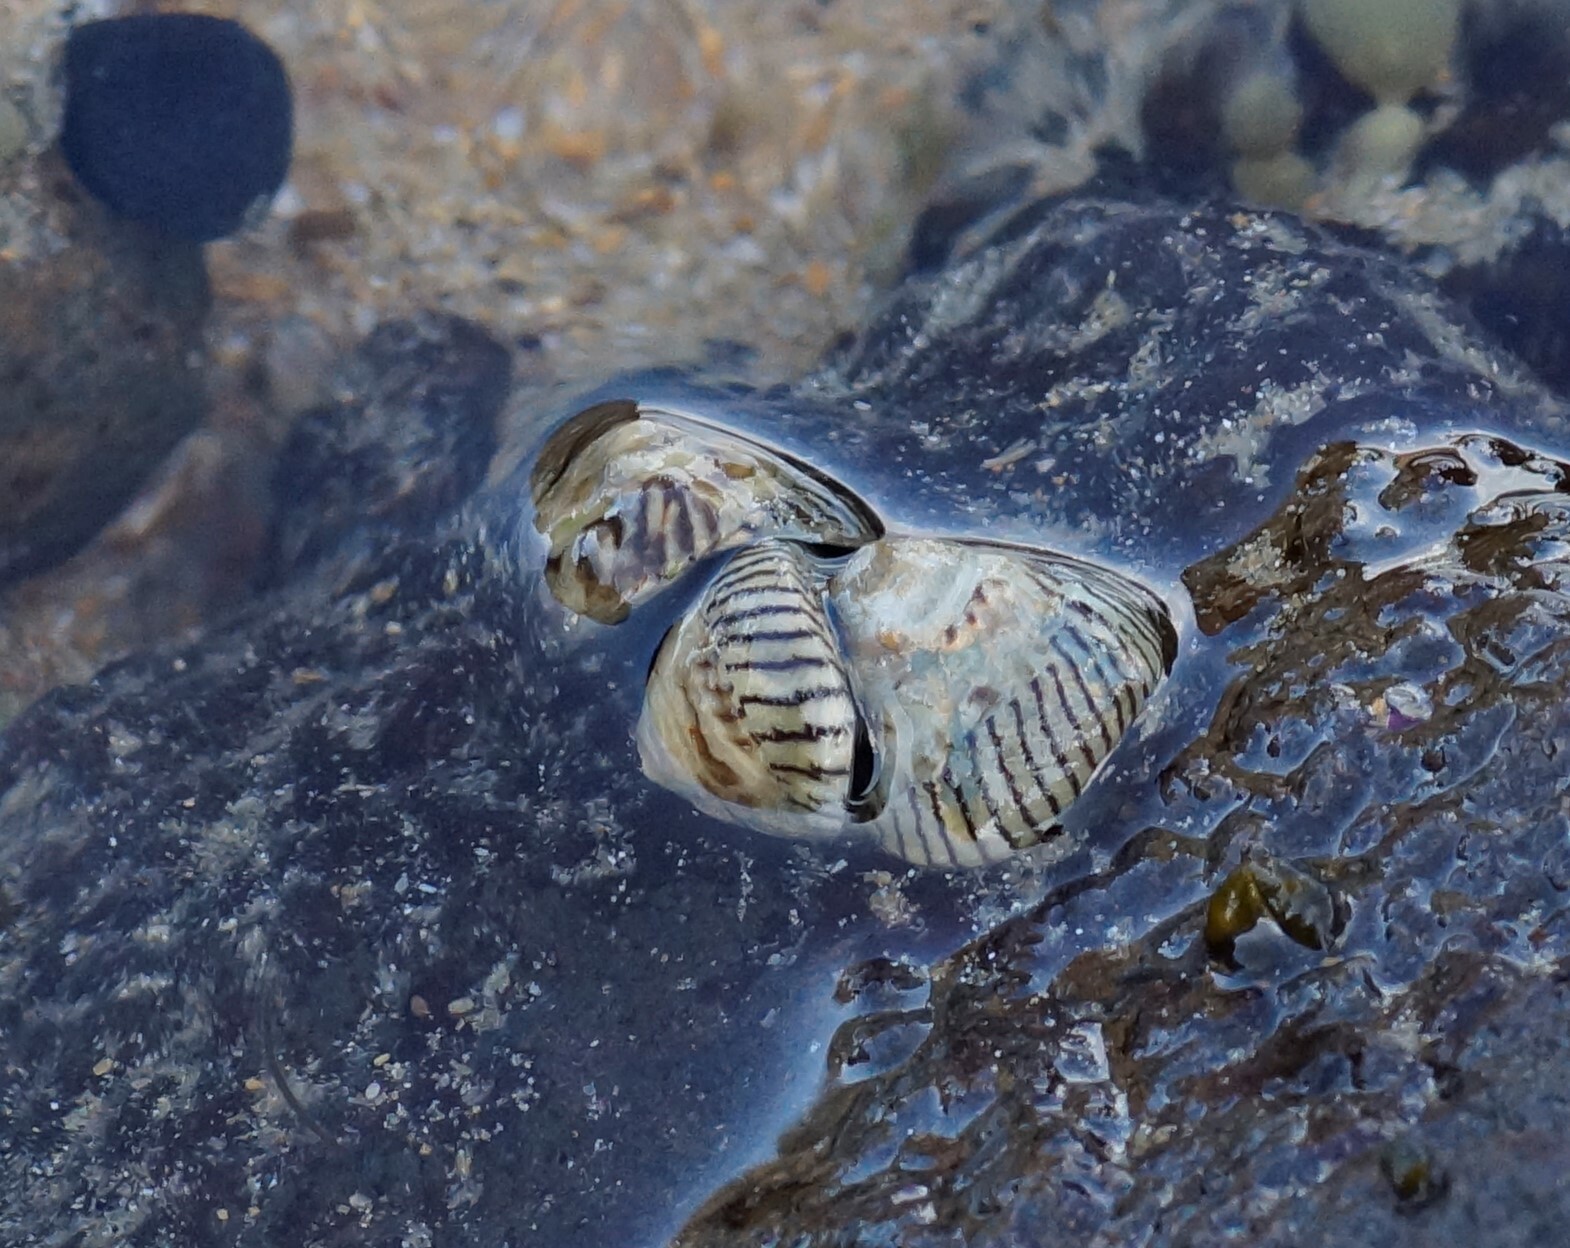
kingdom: Animalia
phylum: Mollusca
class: Gastropoda
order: Littorinimorpha
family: Littorinidae
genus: Bembicium
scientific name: Bembicium nanum
